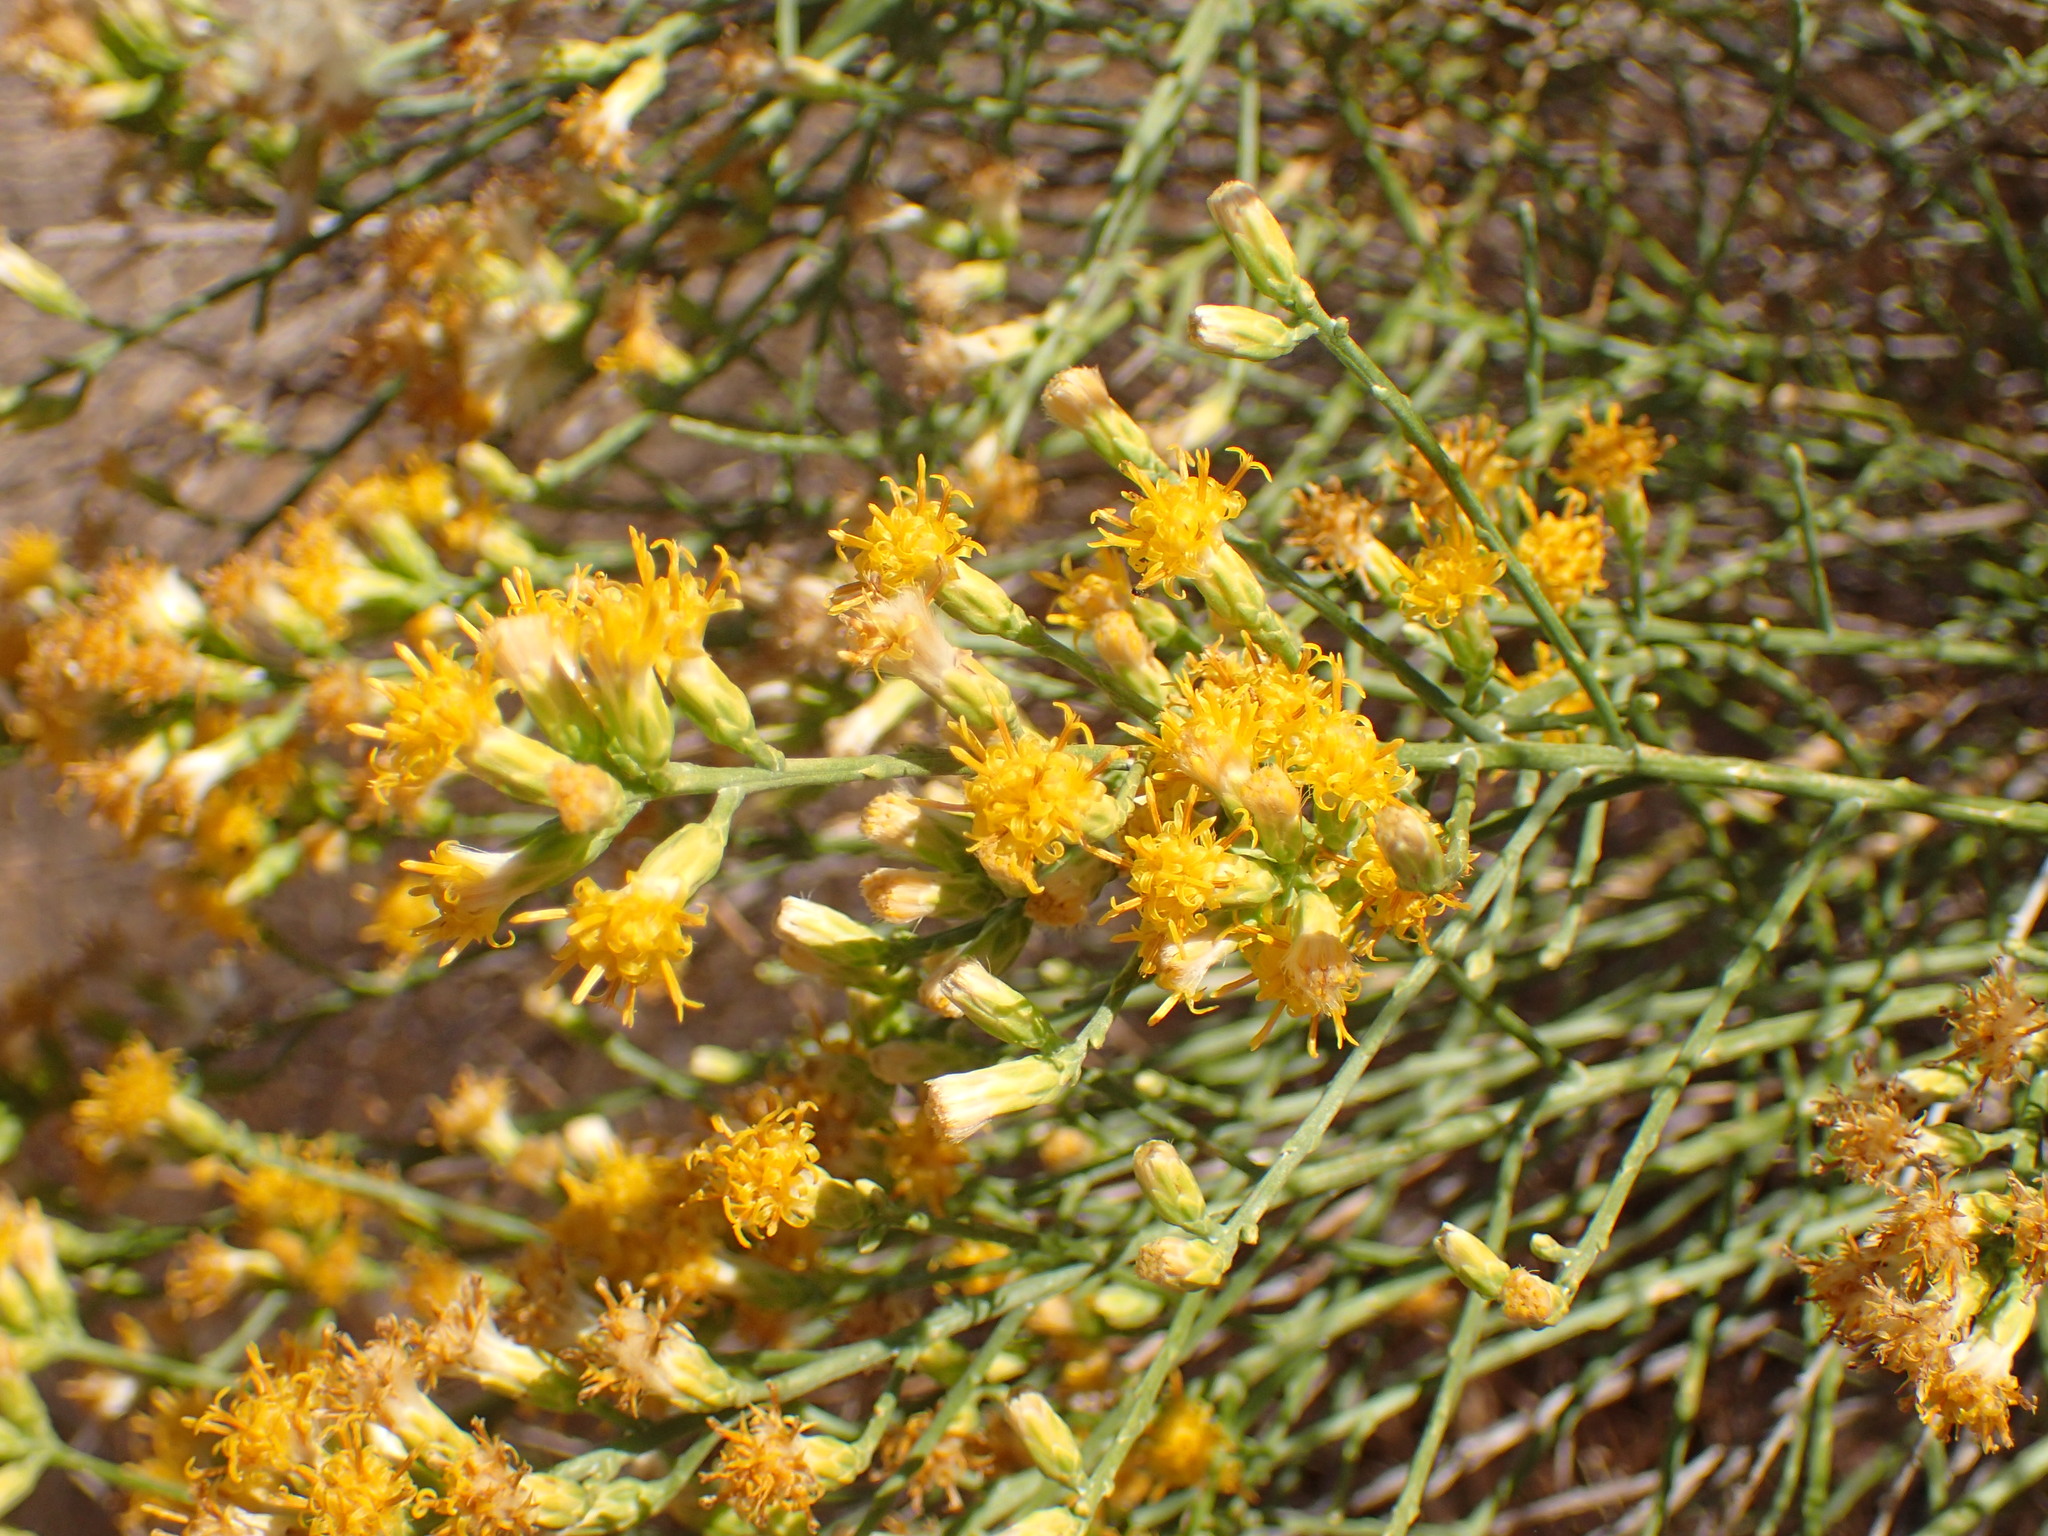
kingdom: Plantae
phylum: Tracheophyta
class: Magnoliopsida
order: Asterales
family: Asteraceae
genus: Lepidospartum
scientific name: Lepidospartum squamatum
